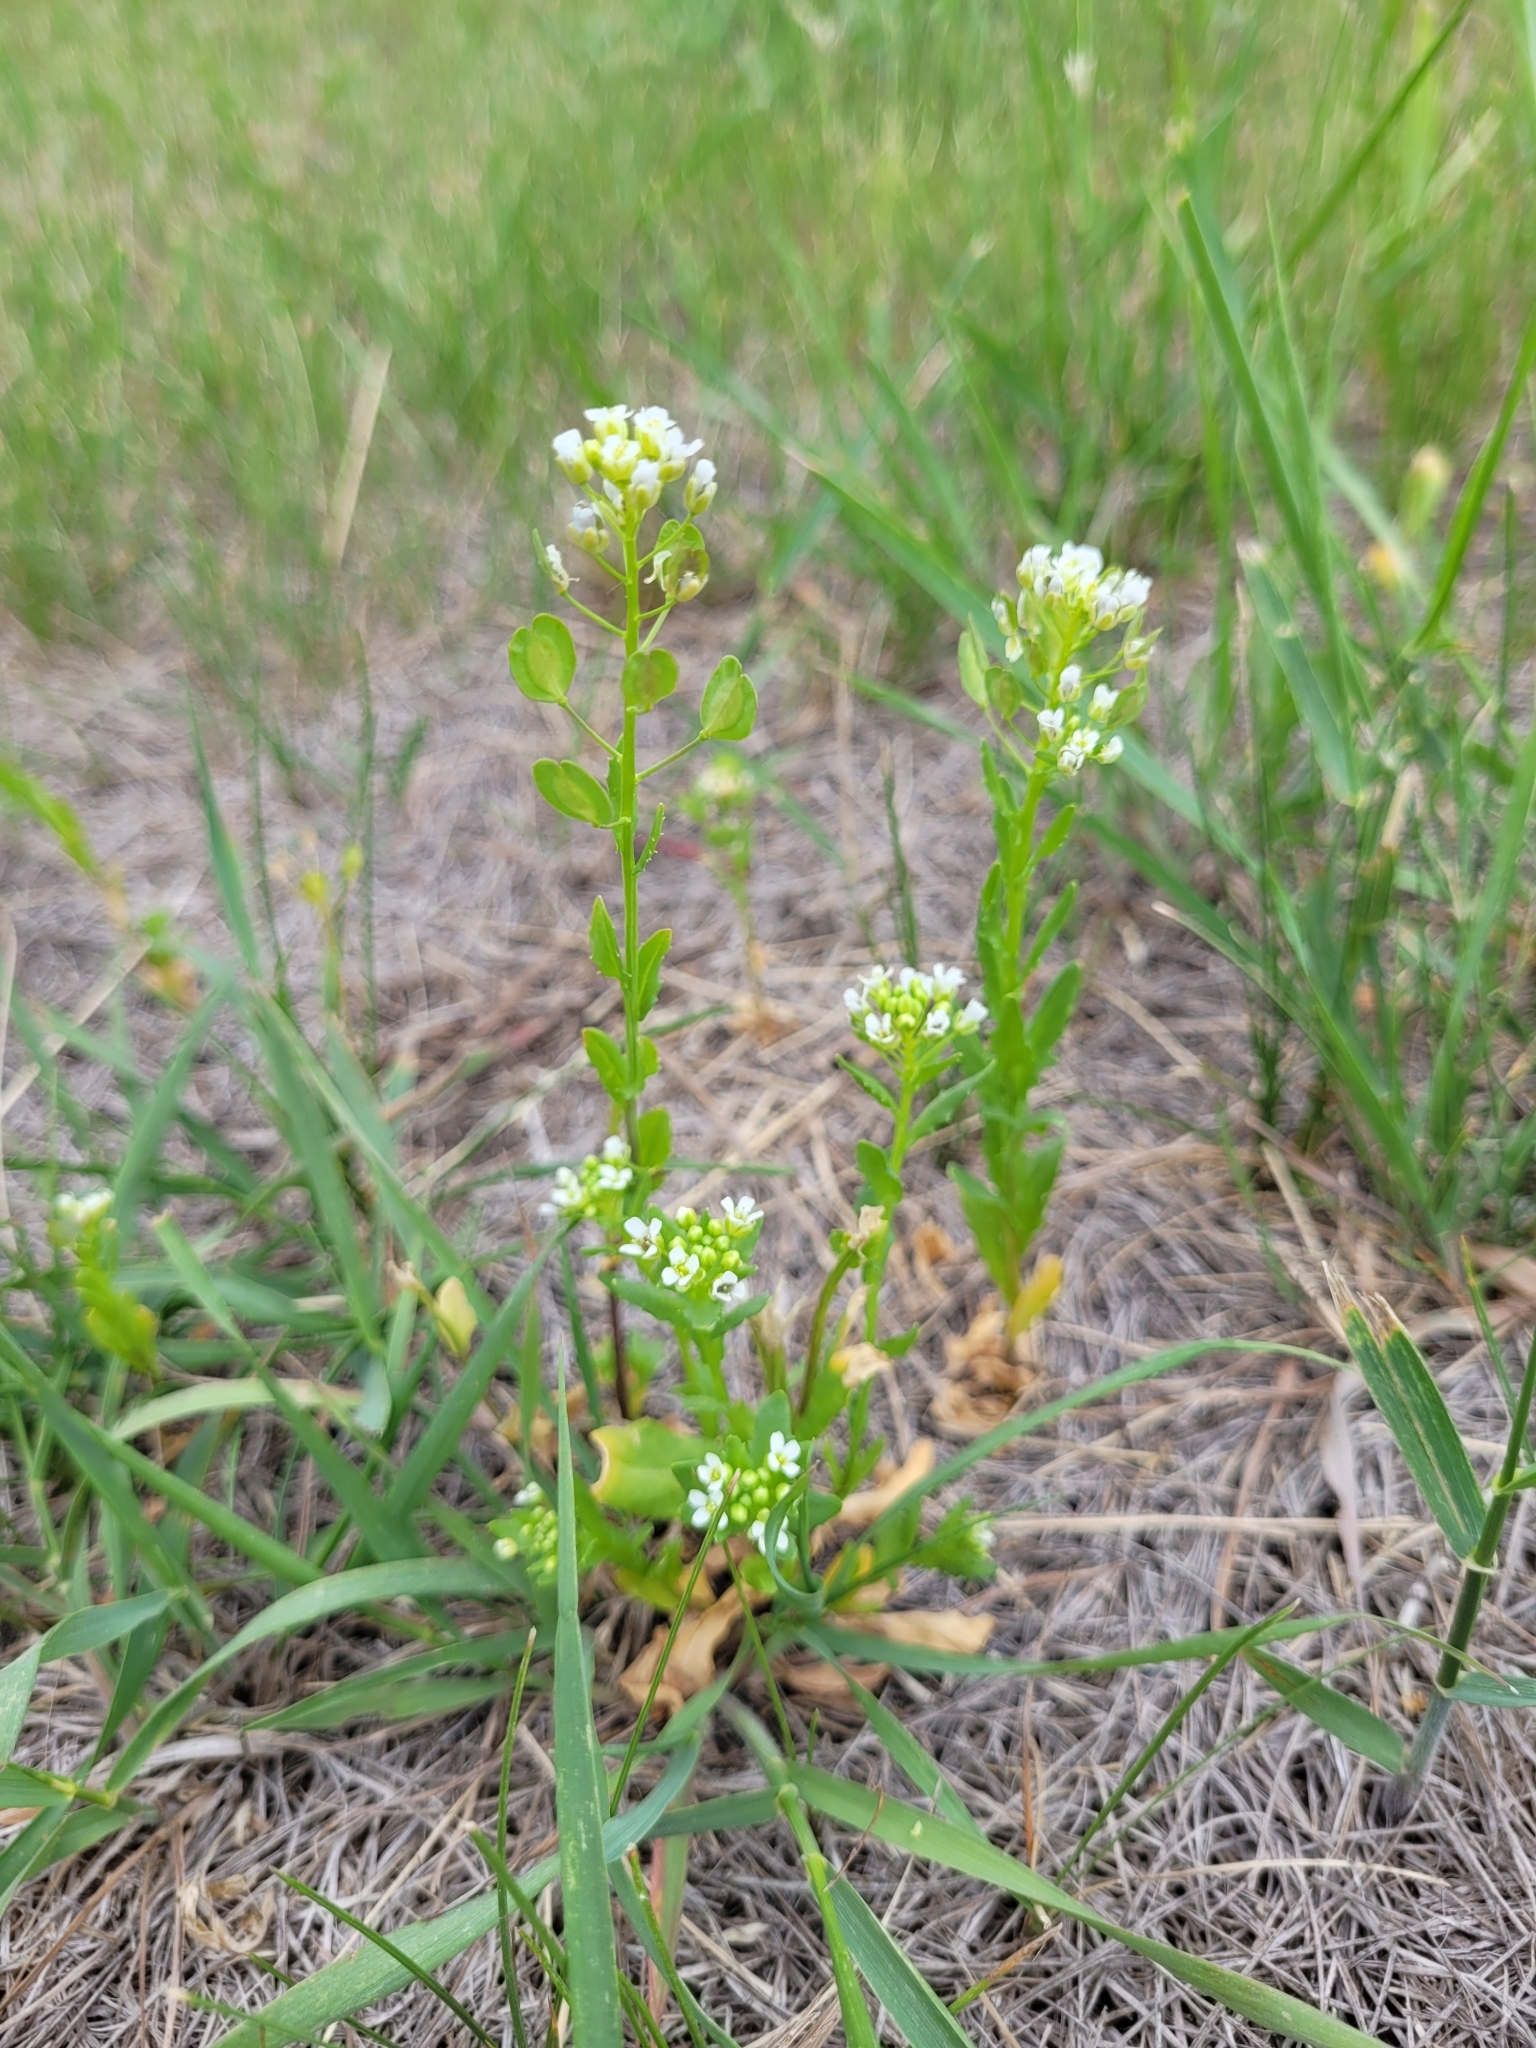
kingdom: Plantae
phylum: Tracheophyta
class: Magnoliopsida
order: Brassicales
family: Brassicaceae
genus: Thlaspi
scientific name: Thlaspi arvense
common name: Field pennycress
